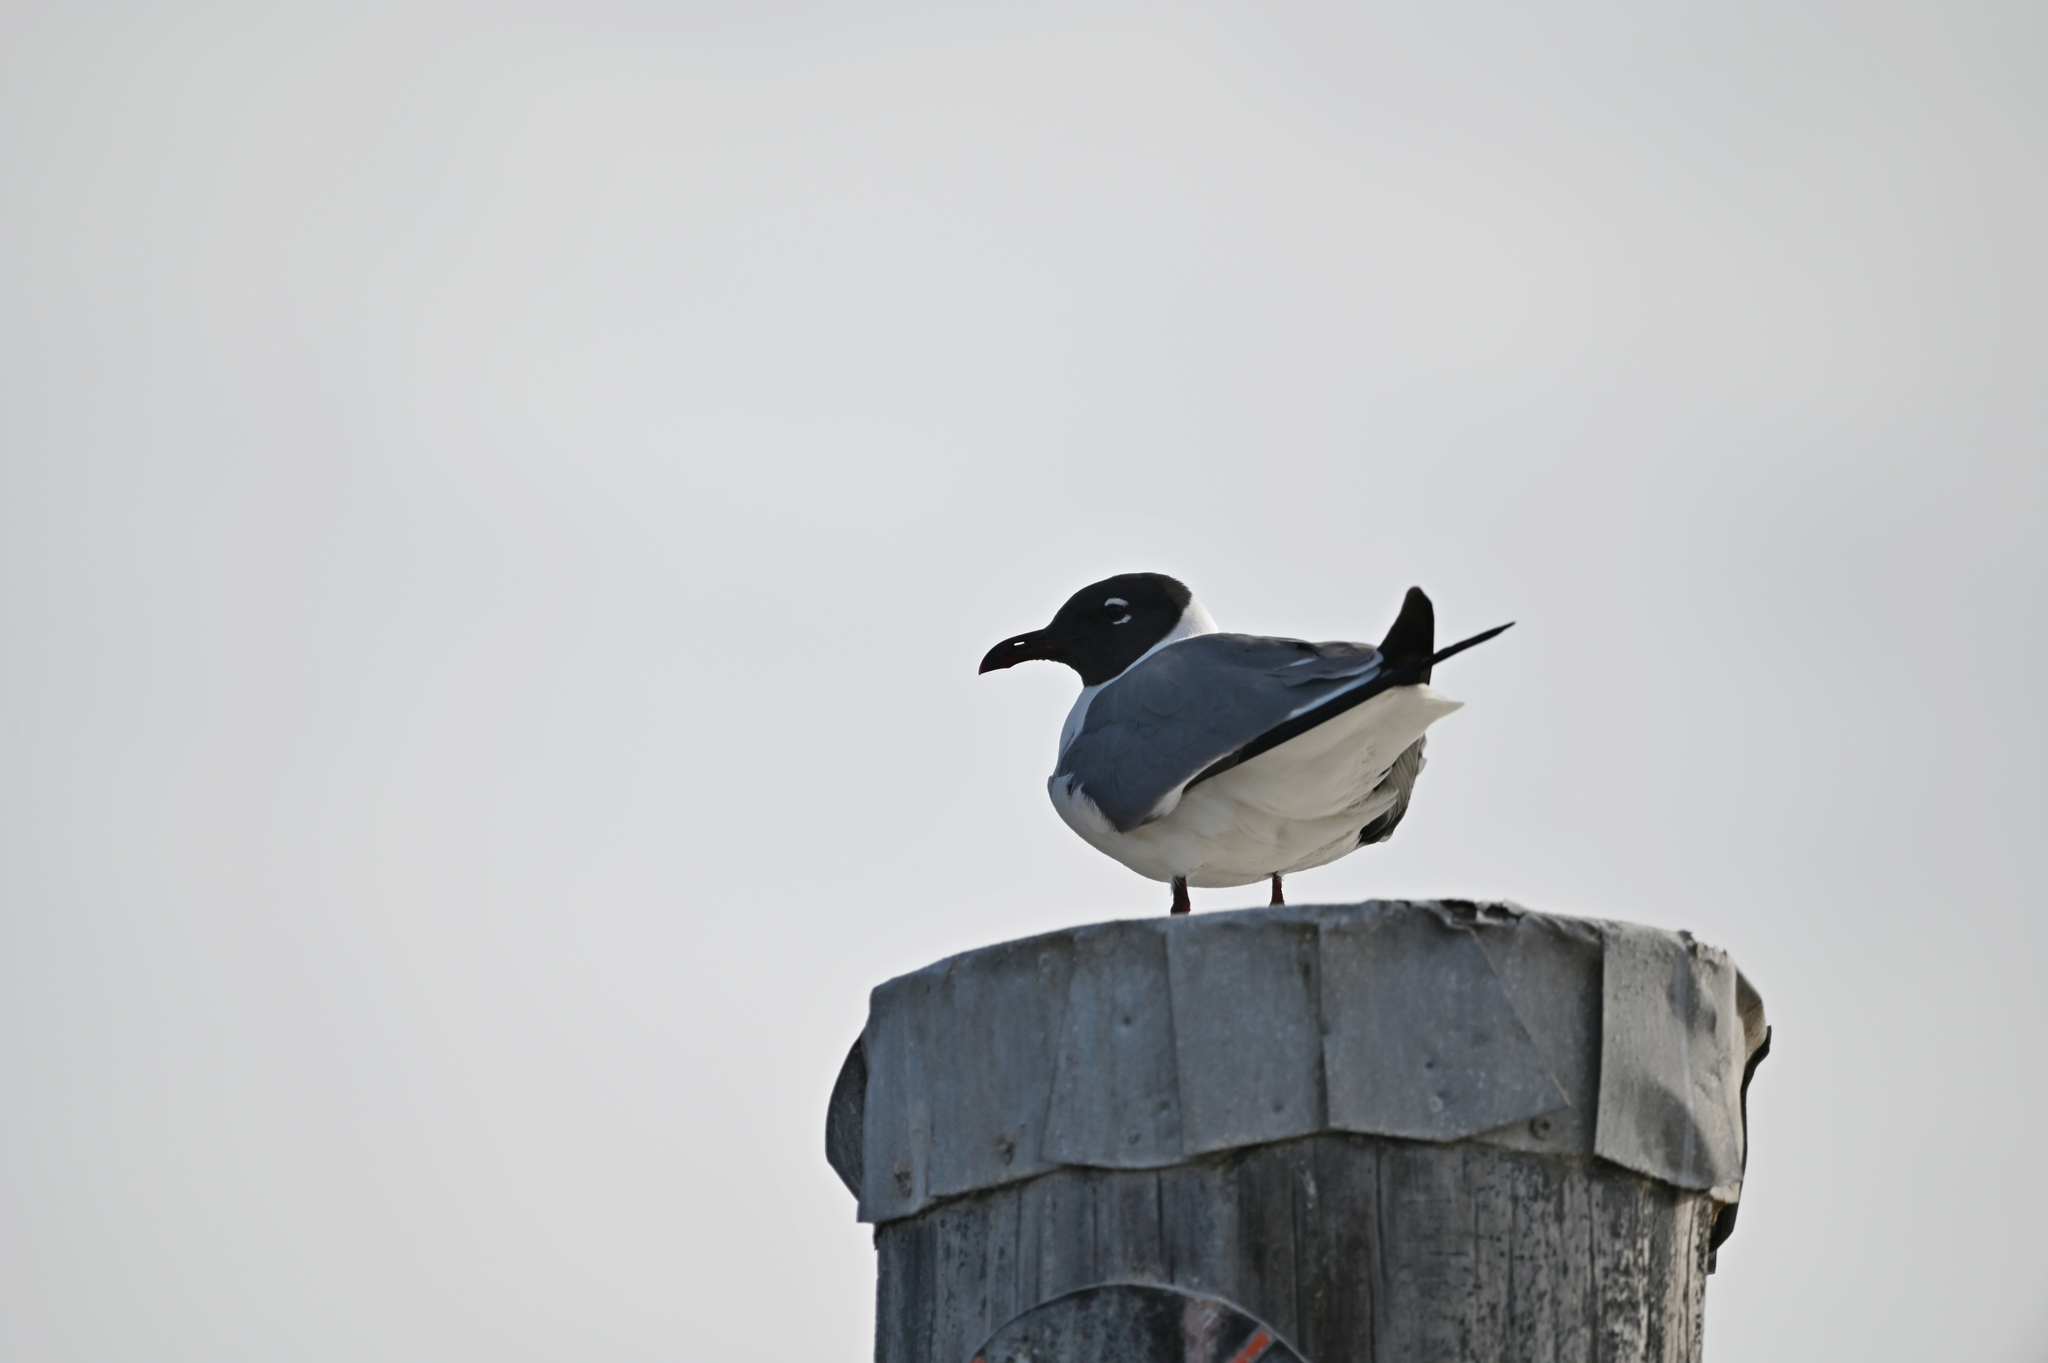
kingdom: Animalia
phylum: Chordata
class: Aves
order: Charadriiformes
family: Laridae
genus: Leucophaeus
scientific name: Leucophaeus atricilla
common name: Laughing gull
